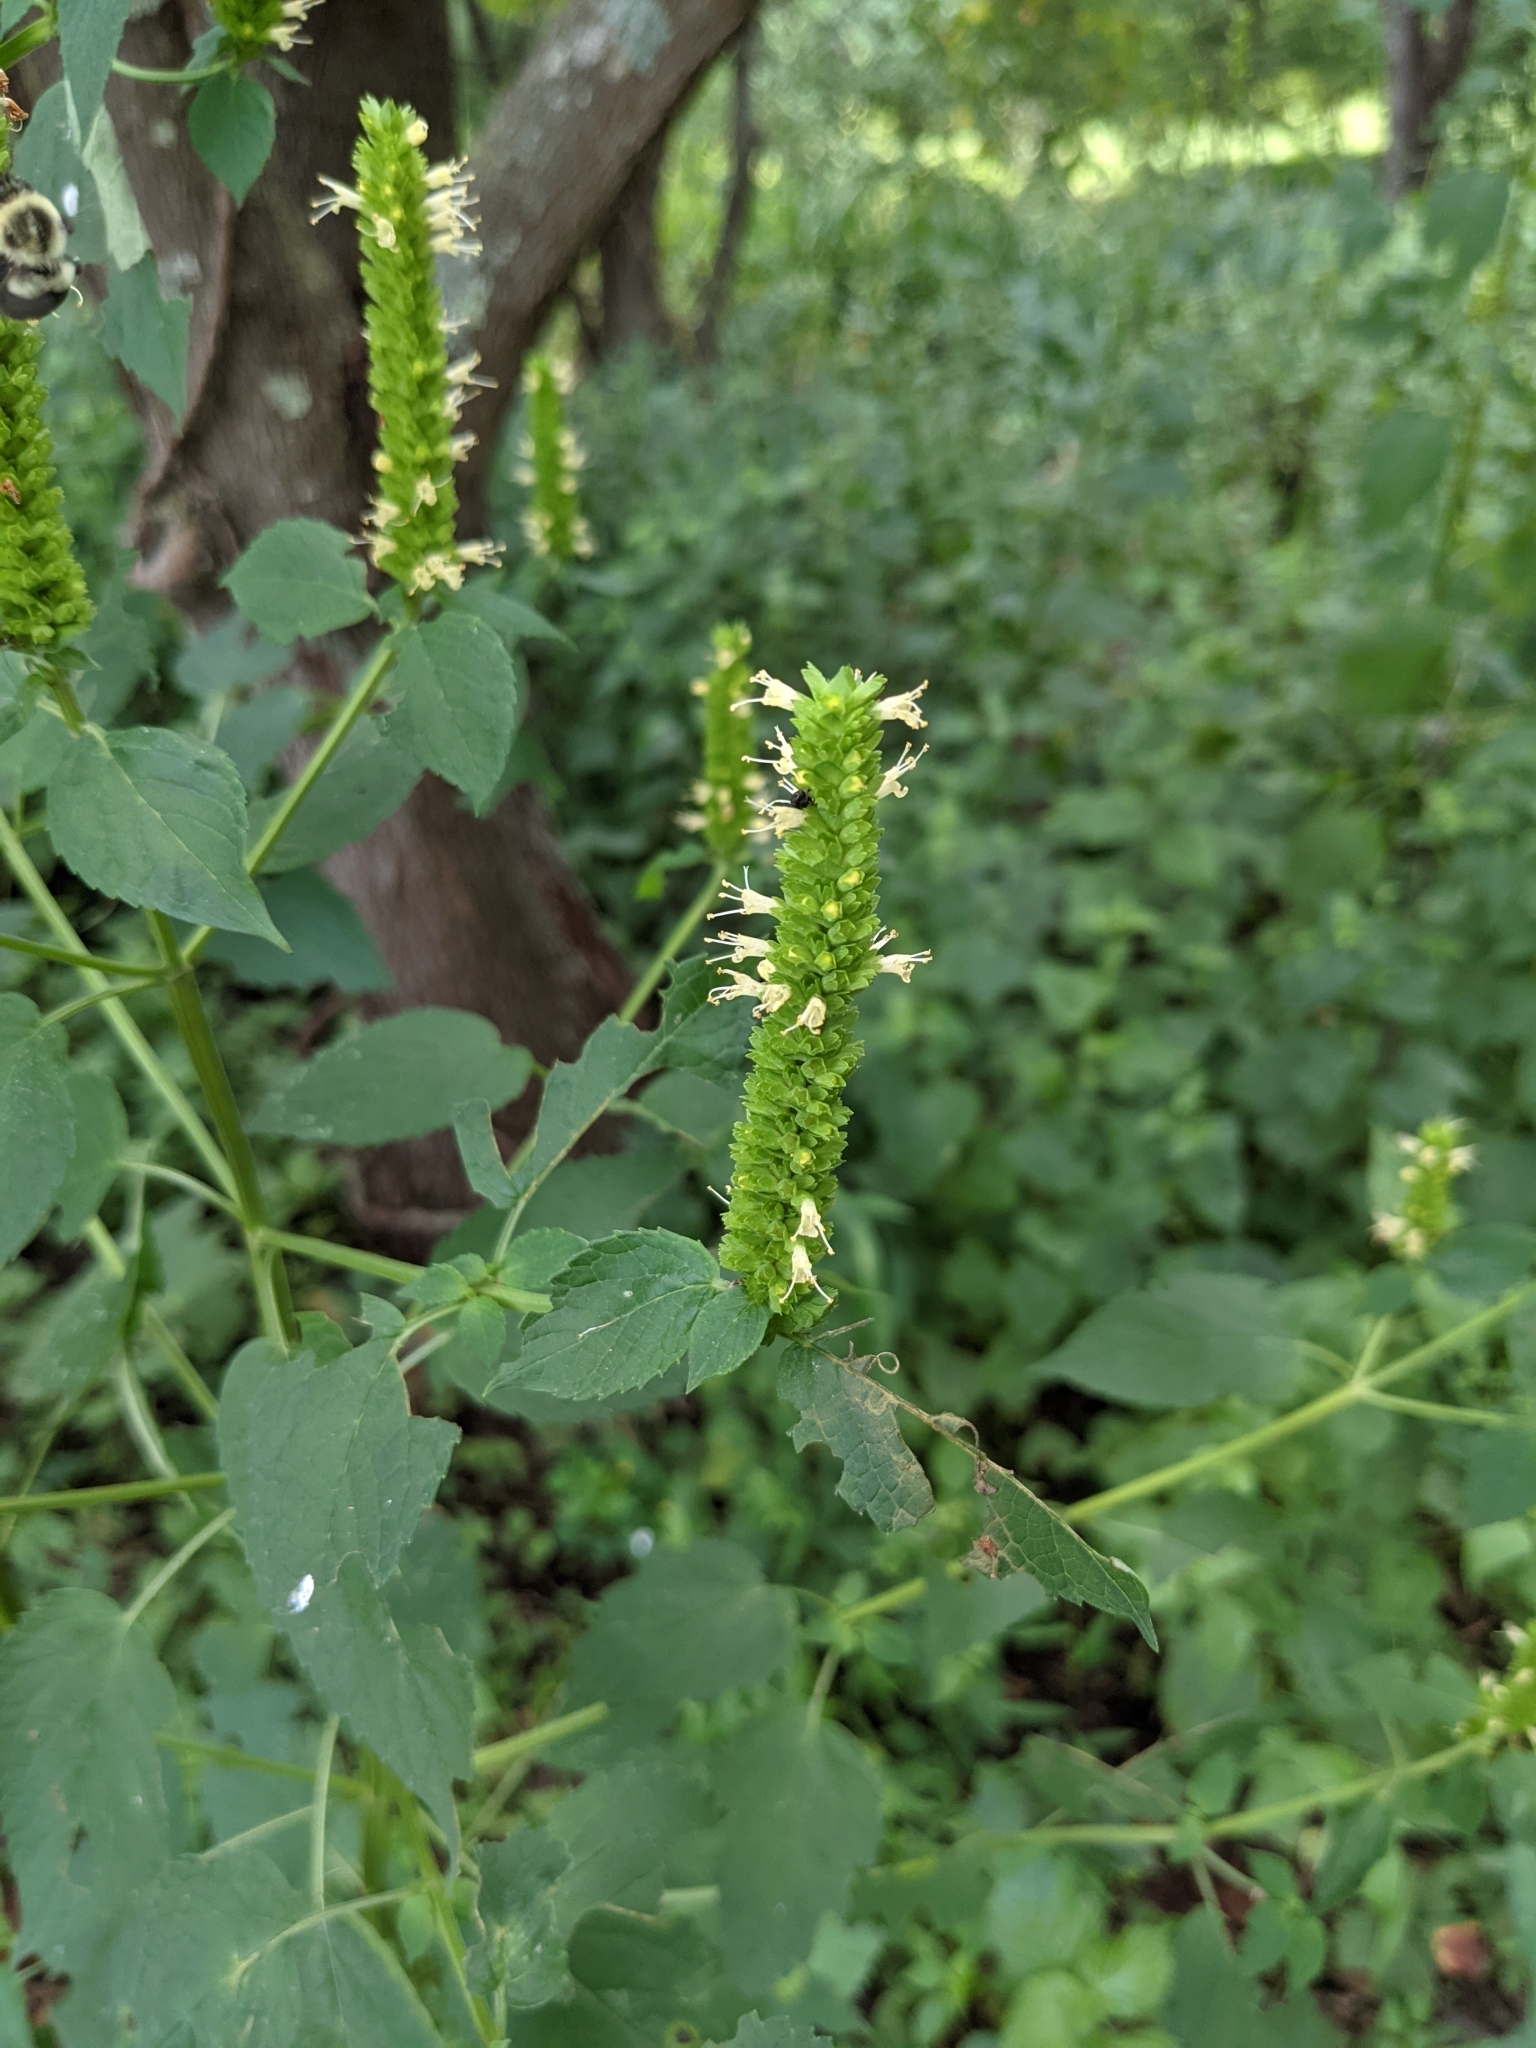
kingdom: Plantae
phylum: Tracheophyta
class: Magnoliopsida
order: Lamiales
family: Lamiaceae
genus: Agastache
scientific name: Agastache nepetoides
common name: Catnip giant hyssop
